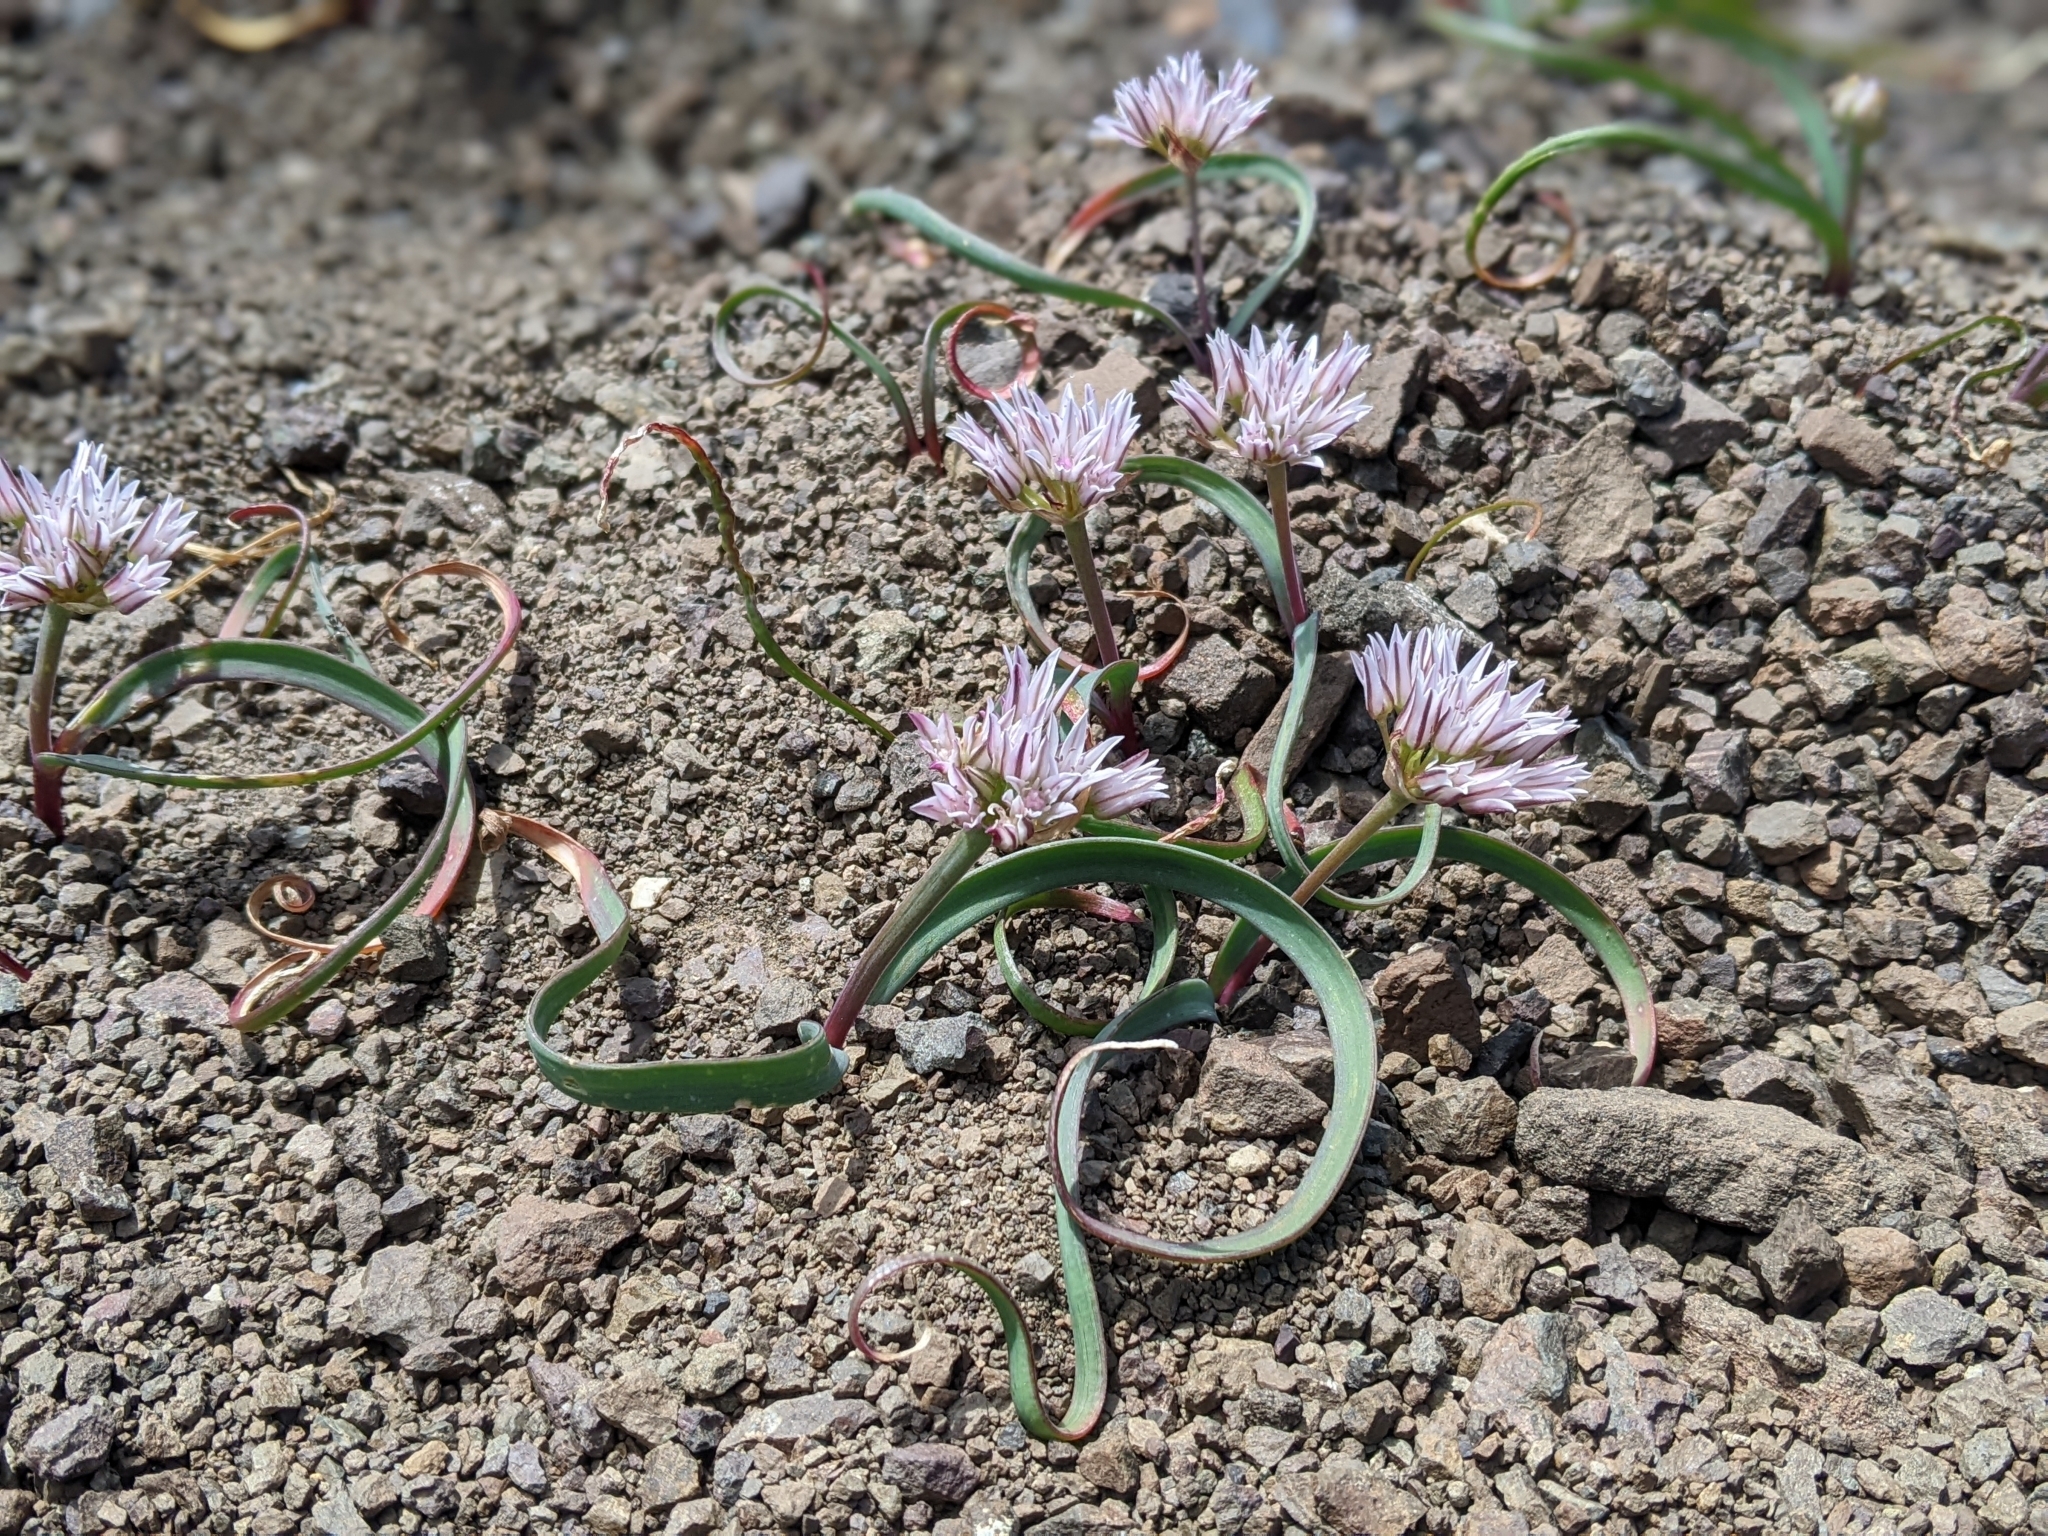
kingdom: Plantae
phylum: Tracheophyta
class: Liliopsida
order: Asparagales
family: Amaryllidaceae
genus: Allium
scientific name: Allium crenulatum
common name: Olympic onion
